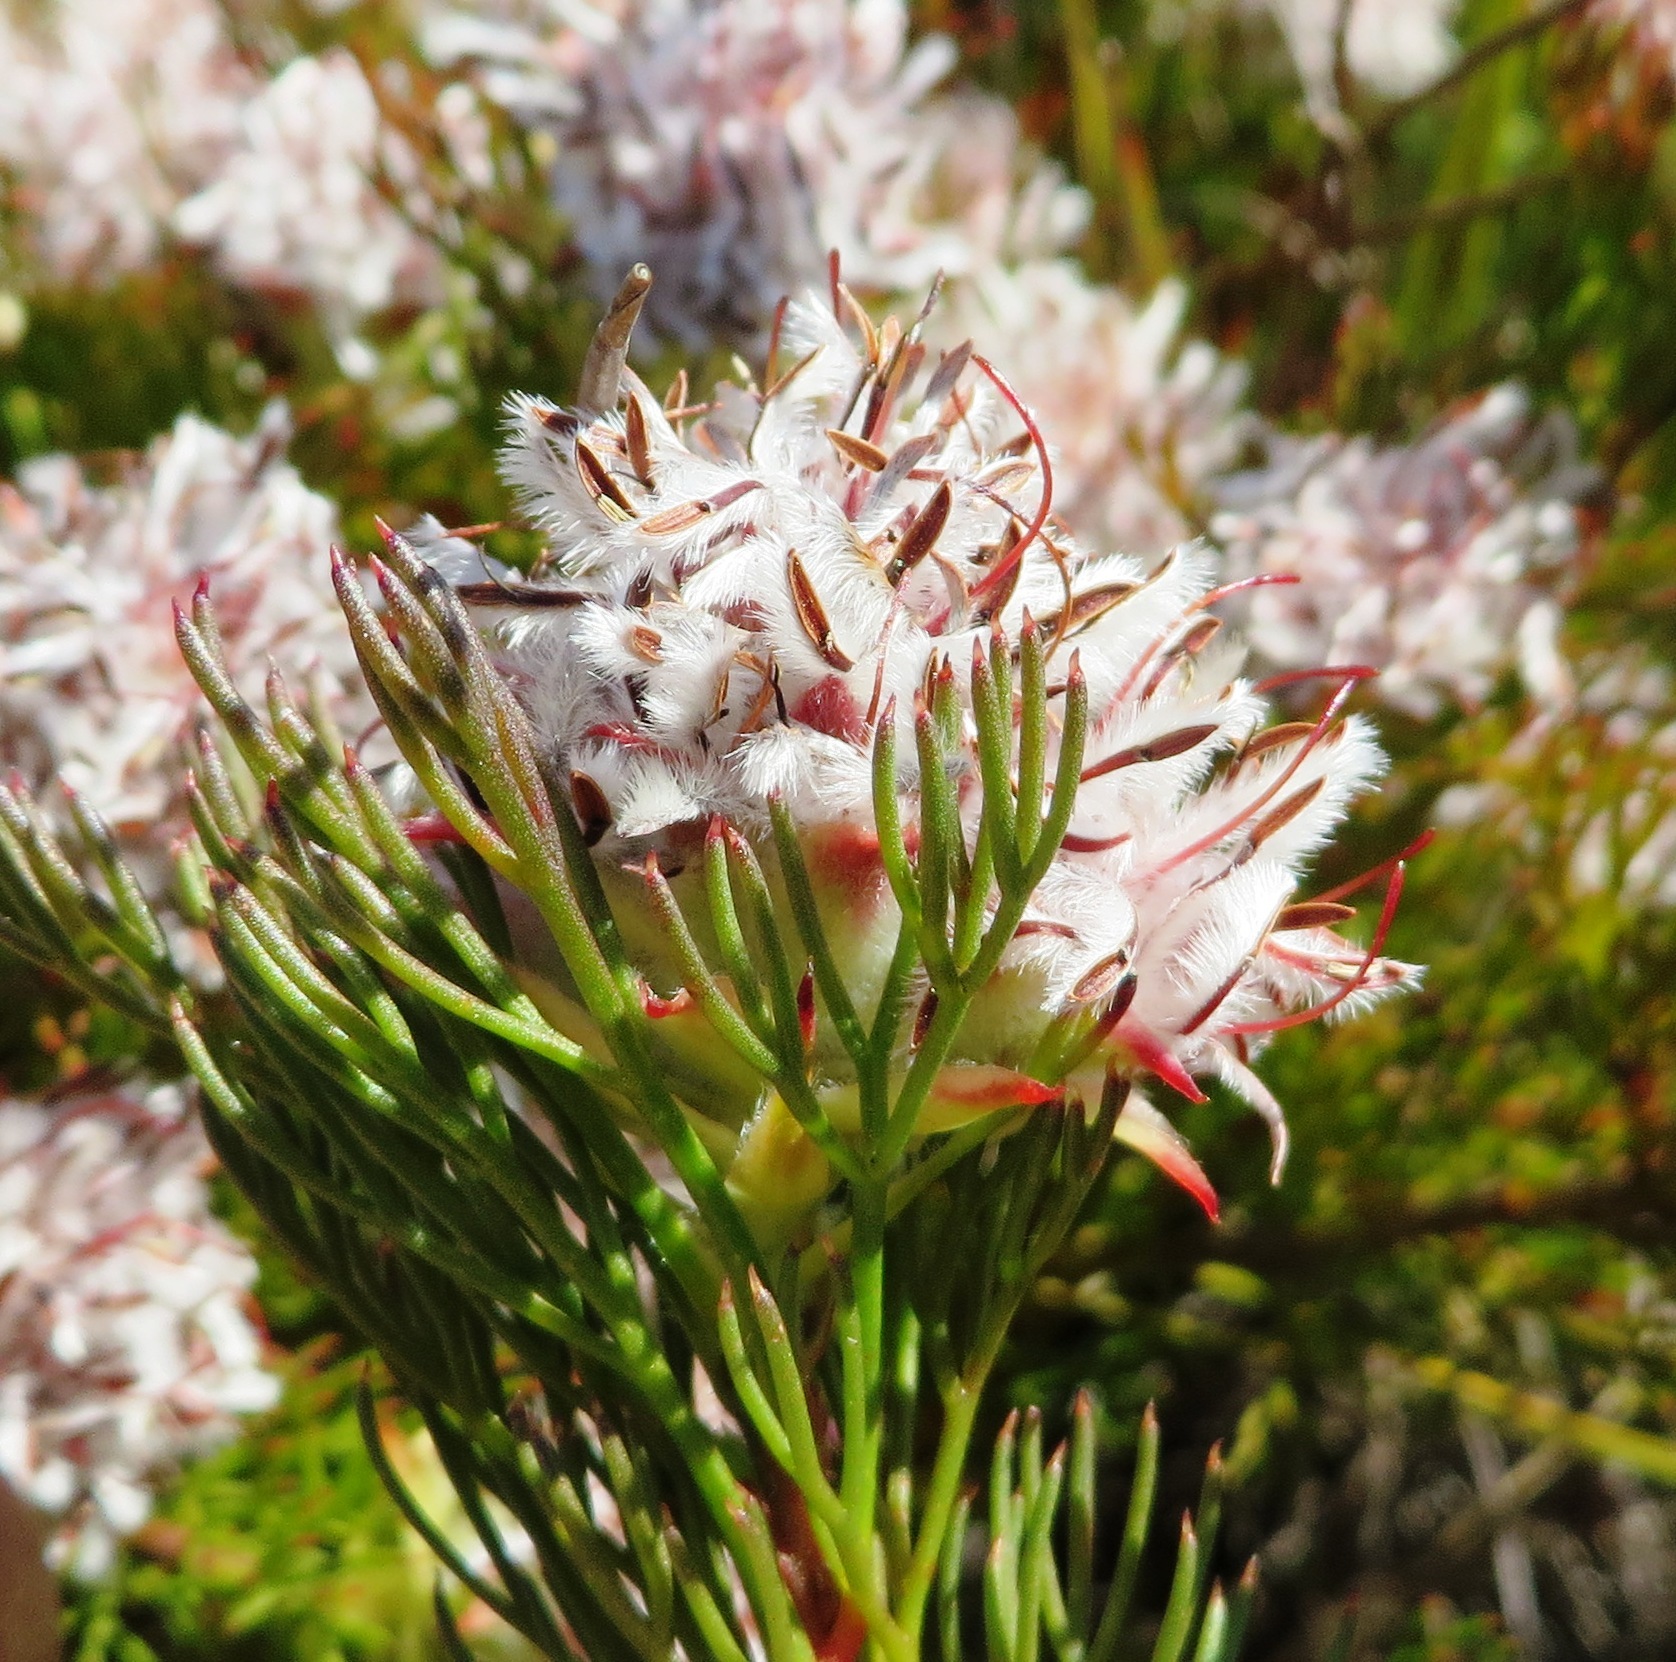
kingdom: Plantae
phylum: Tracheophyta
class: Magnoliopsida
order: Proteales
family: Proteaceae
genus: Serruria
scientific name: Serruria rostellaris
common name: Remote spiderhead
